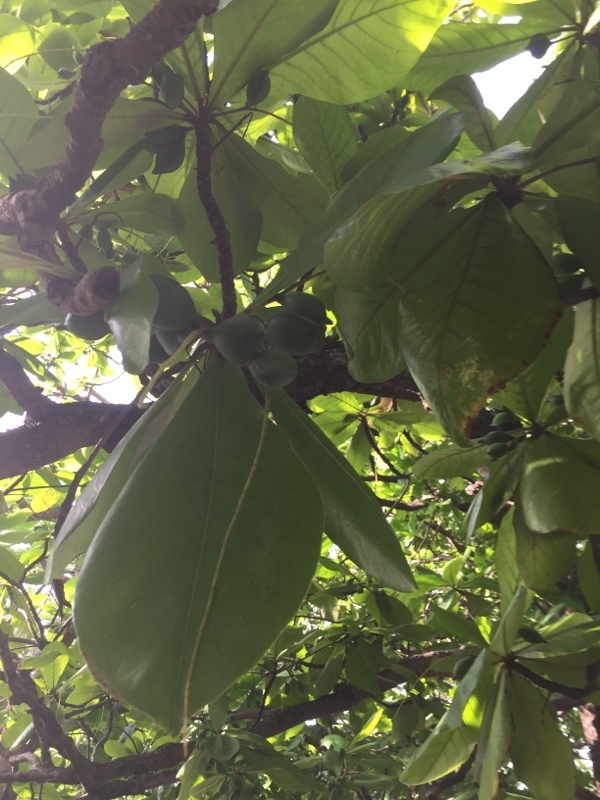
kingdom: Plantae
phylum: Tracheophyta
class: Magnoliopsida
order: Myrtales
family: Combretaceae
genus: Terminalia
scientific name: Terminalia catappa
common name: Tropical almond
